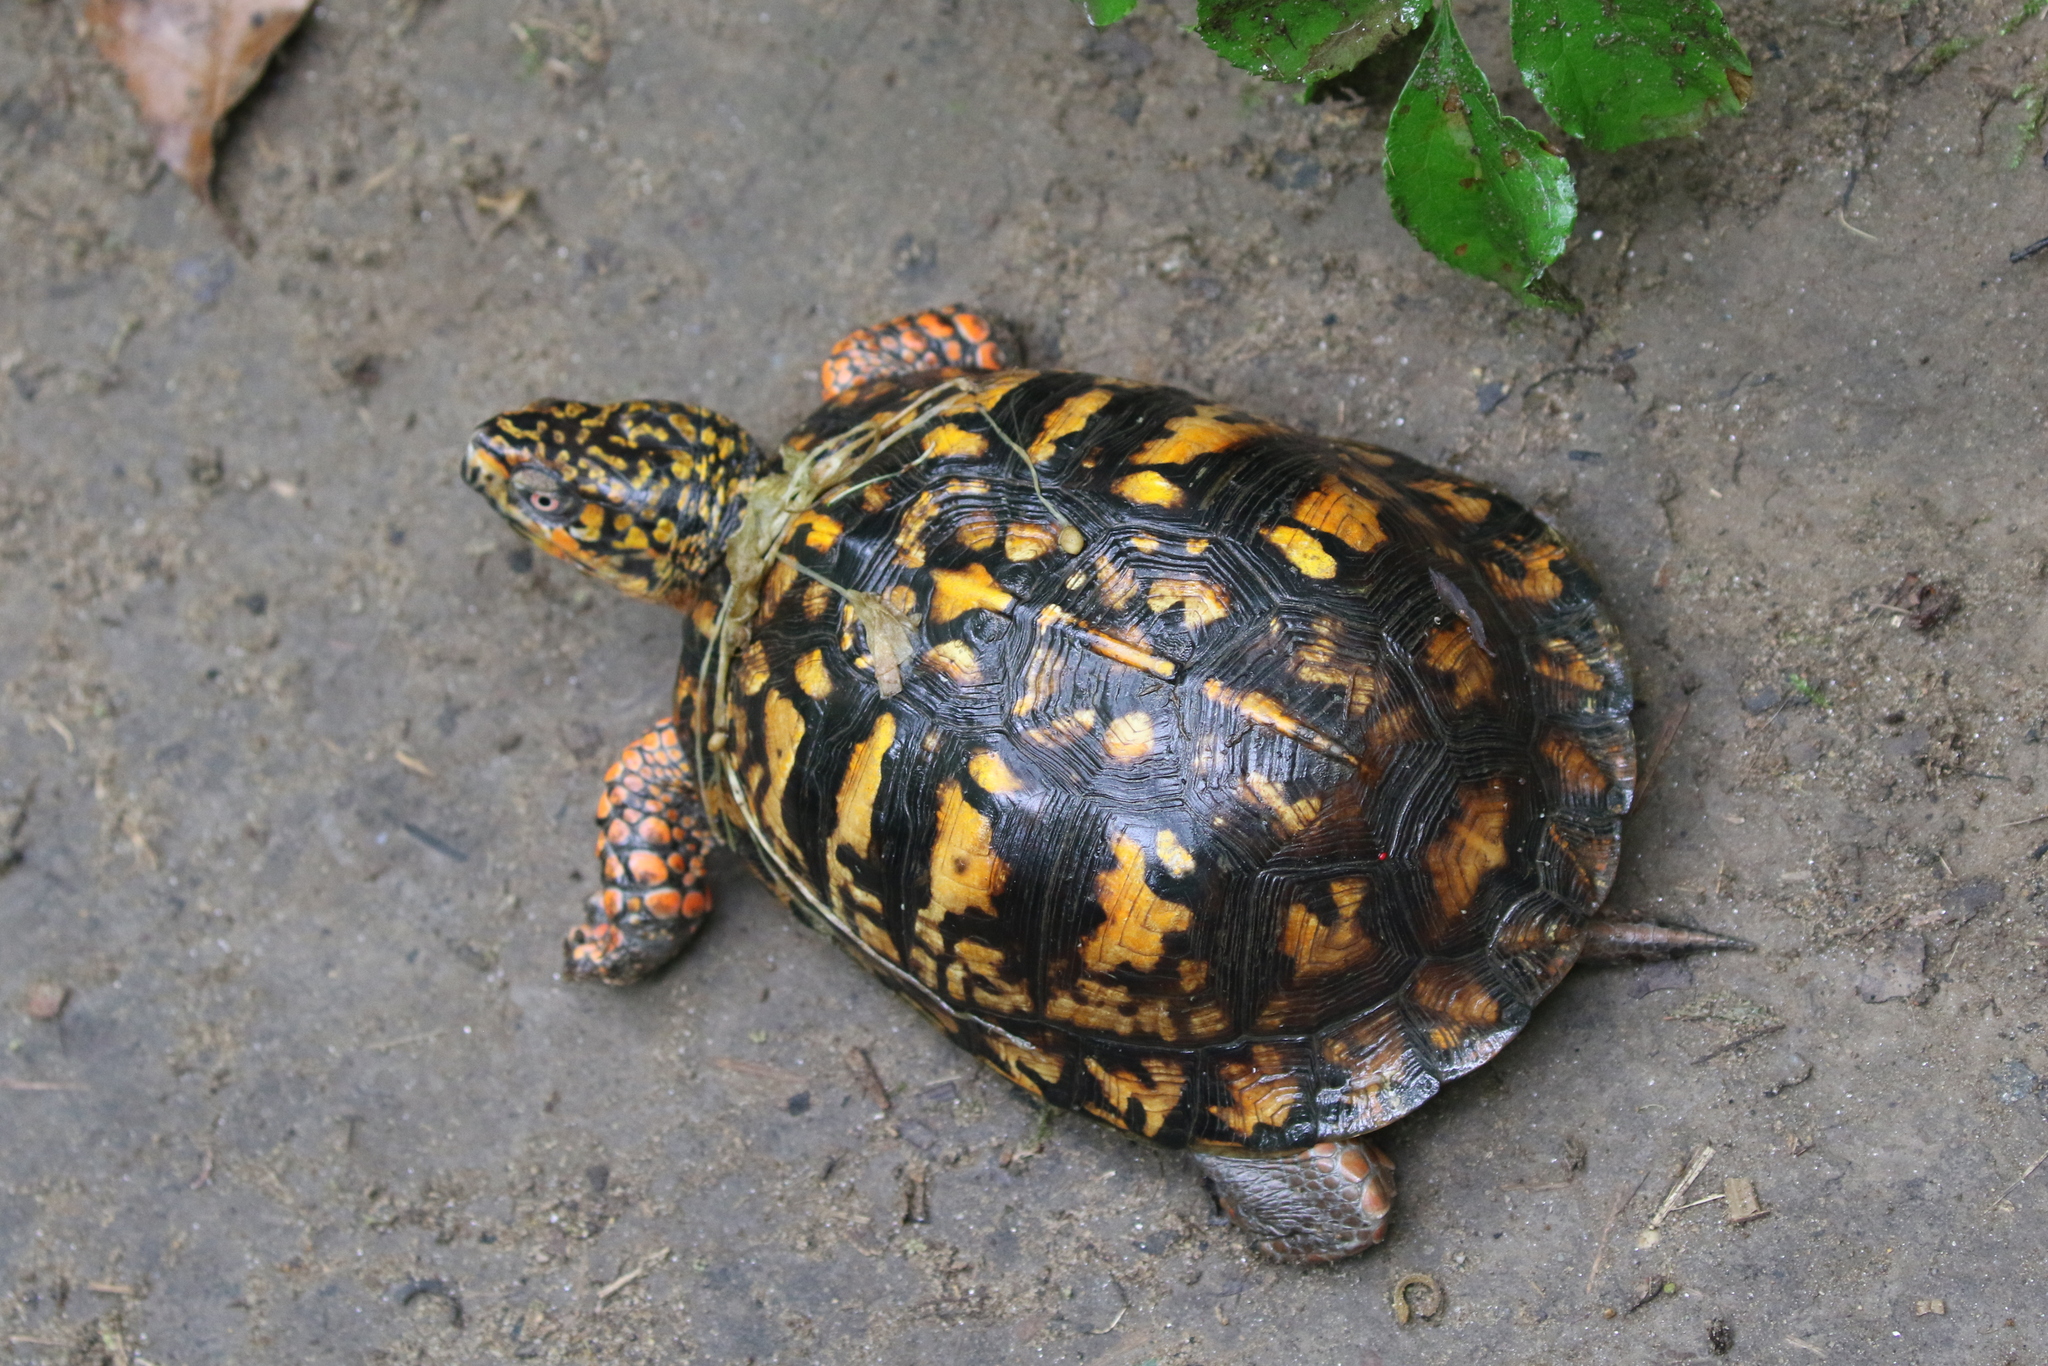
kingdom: Animalia
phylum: Chordata
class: Testudines
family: Emydidae
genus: Terrapene
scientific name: Terrapene carolina
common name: Common box turtle
